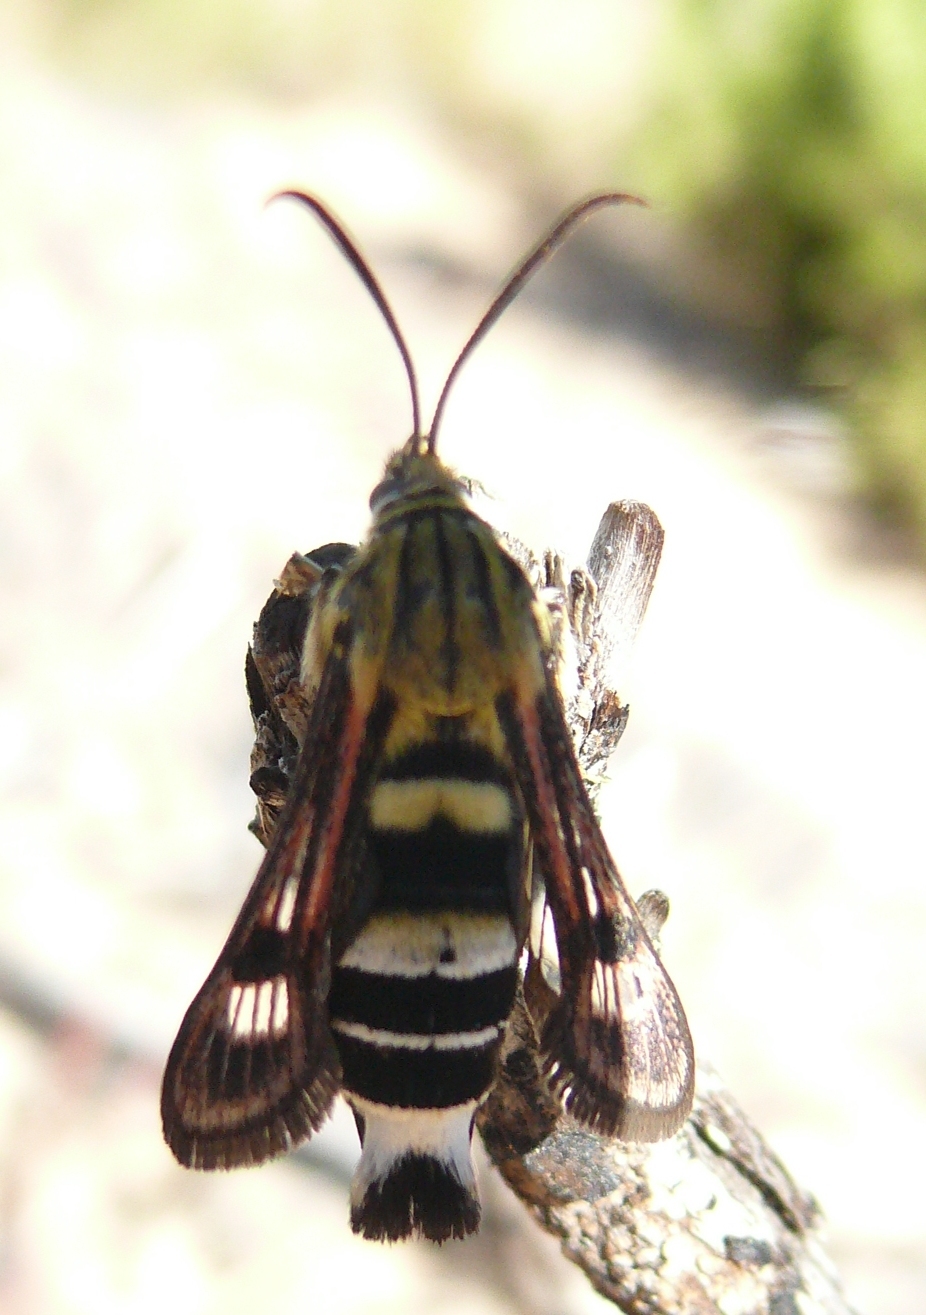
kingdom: Animalia
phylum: Arthropoda
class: Insecta
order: Lepidoptera
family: Sesiidae
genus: Felderiola
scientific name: Felderiola candescens
